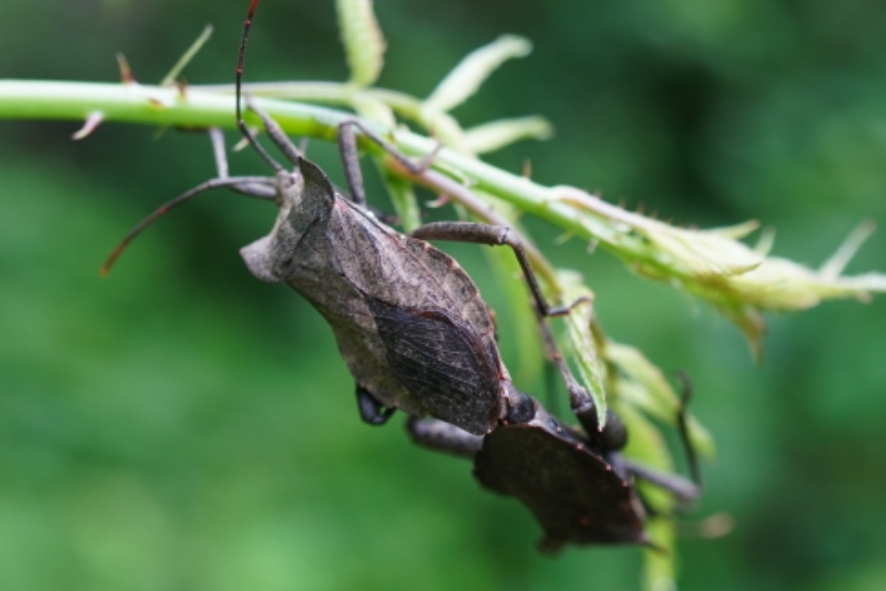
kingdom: Animalia
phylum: Arthropoda
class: Insecta
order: Hemiptera
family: Coreidae
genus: Molipteryx
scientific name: Molipteryx fuliginosa
